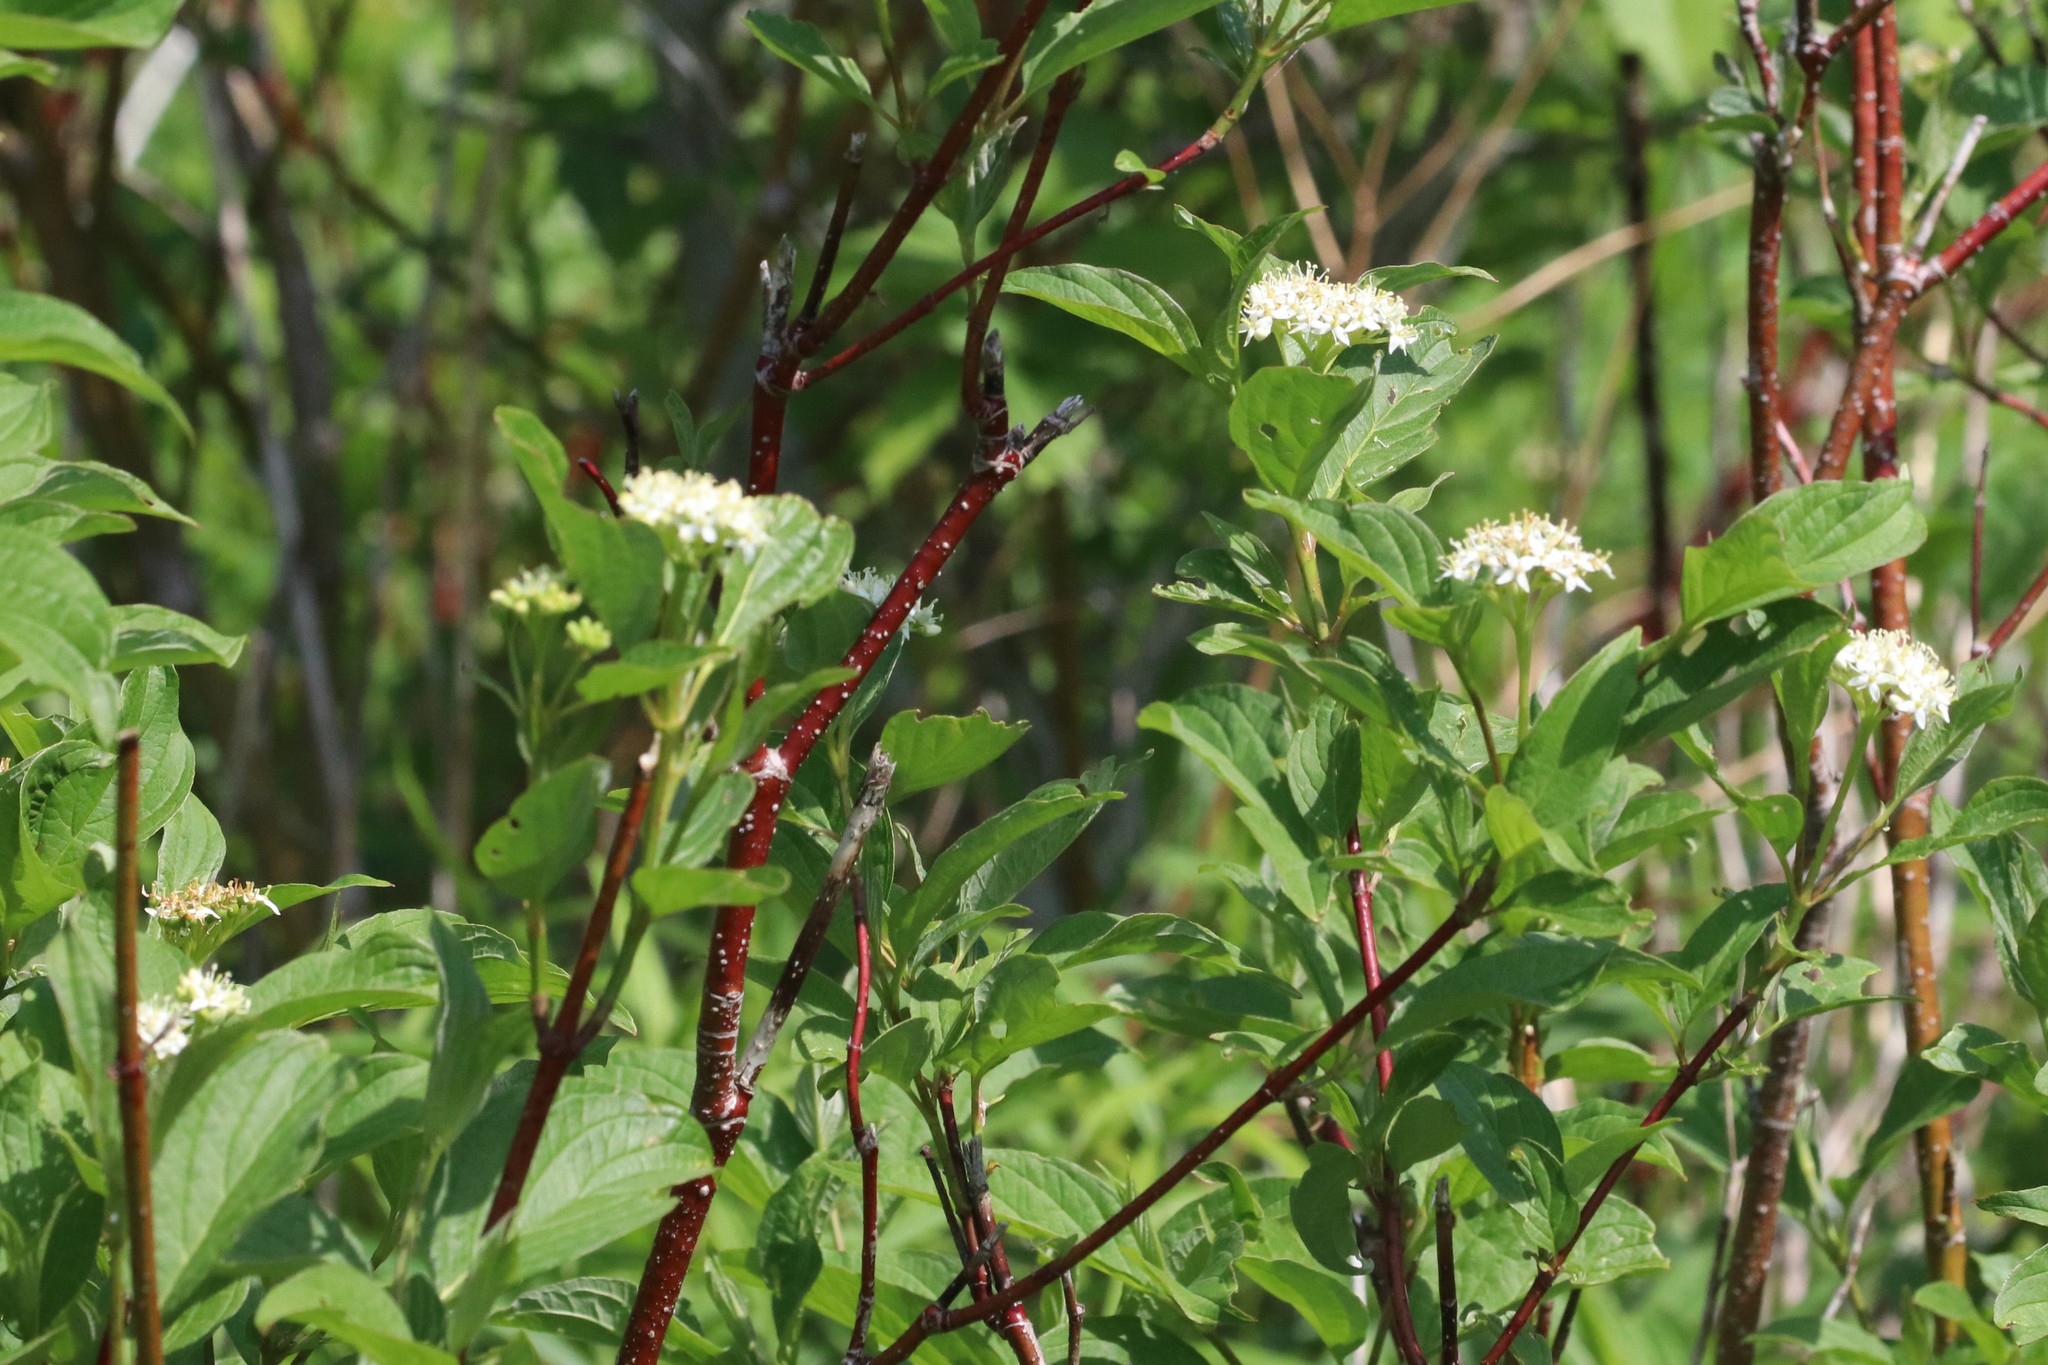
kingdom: Plantae
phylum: Tracheophyta
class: Magnoliopsida
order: Cornales
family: Cornaceae
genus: Cornus
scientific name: Cornus sericea
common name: Red-osier dogwood
